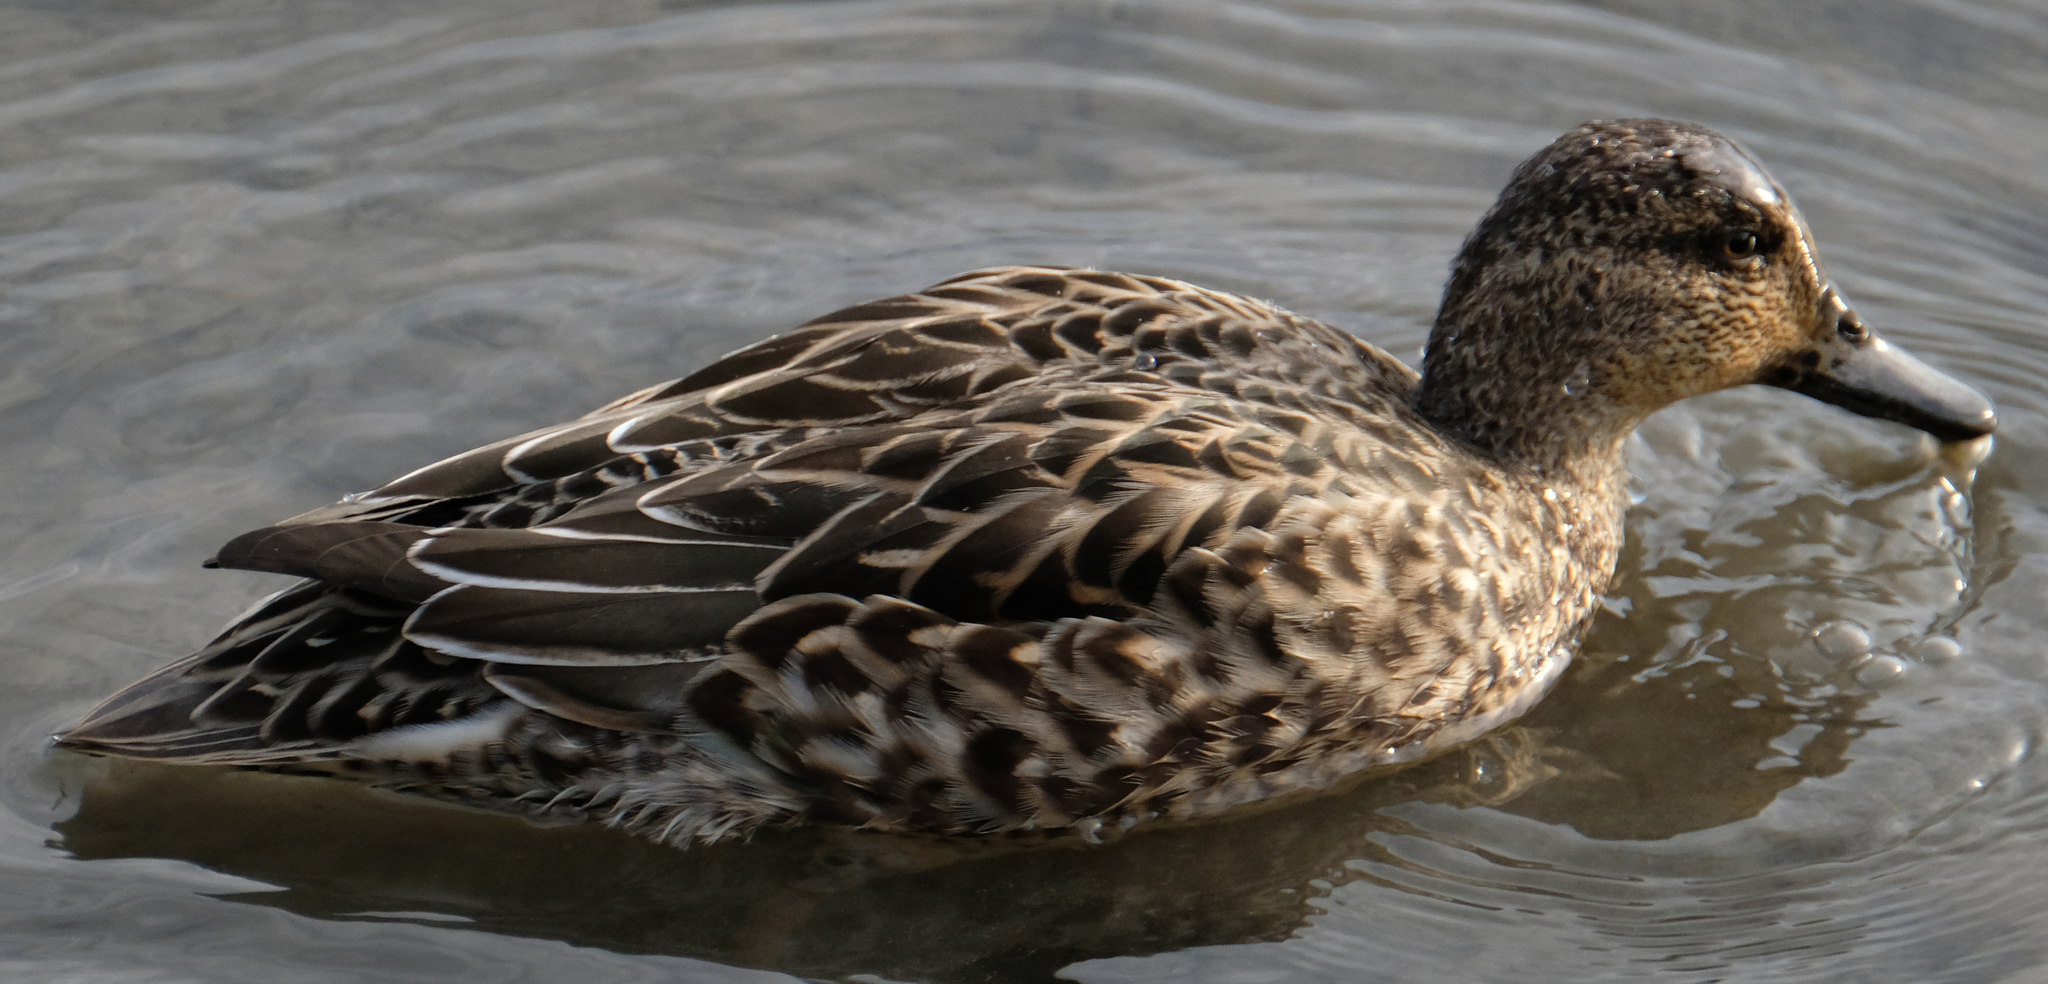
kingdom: Animalia
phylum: Chordata
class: Aves
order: Anseriformes
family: Anatidae
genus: Anas
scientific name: Anas crecca
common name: Eurasian teal
